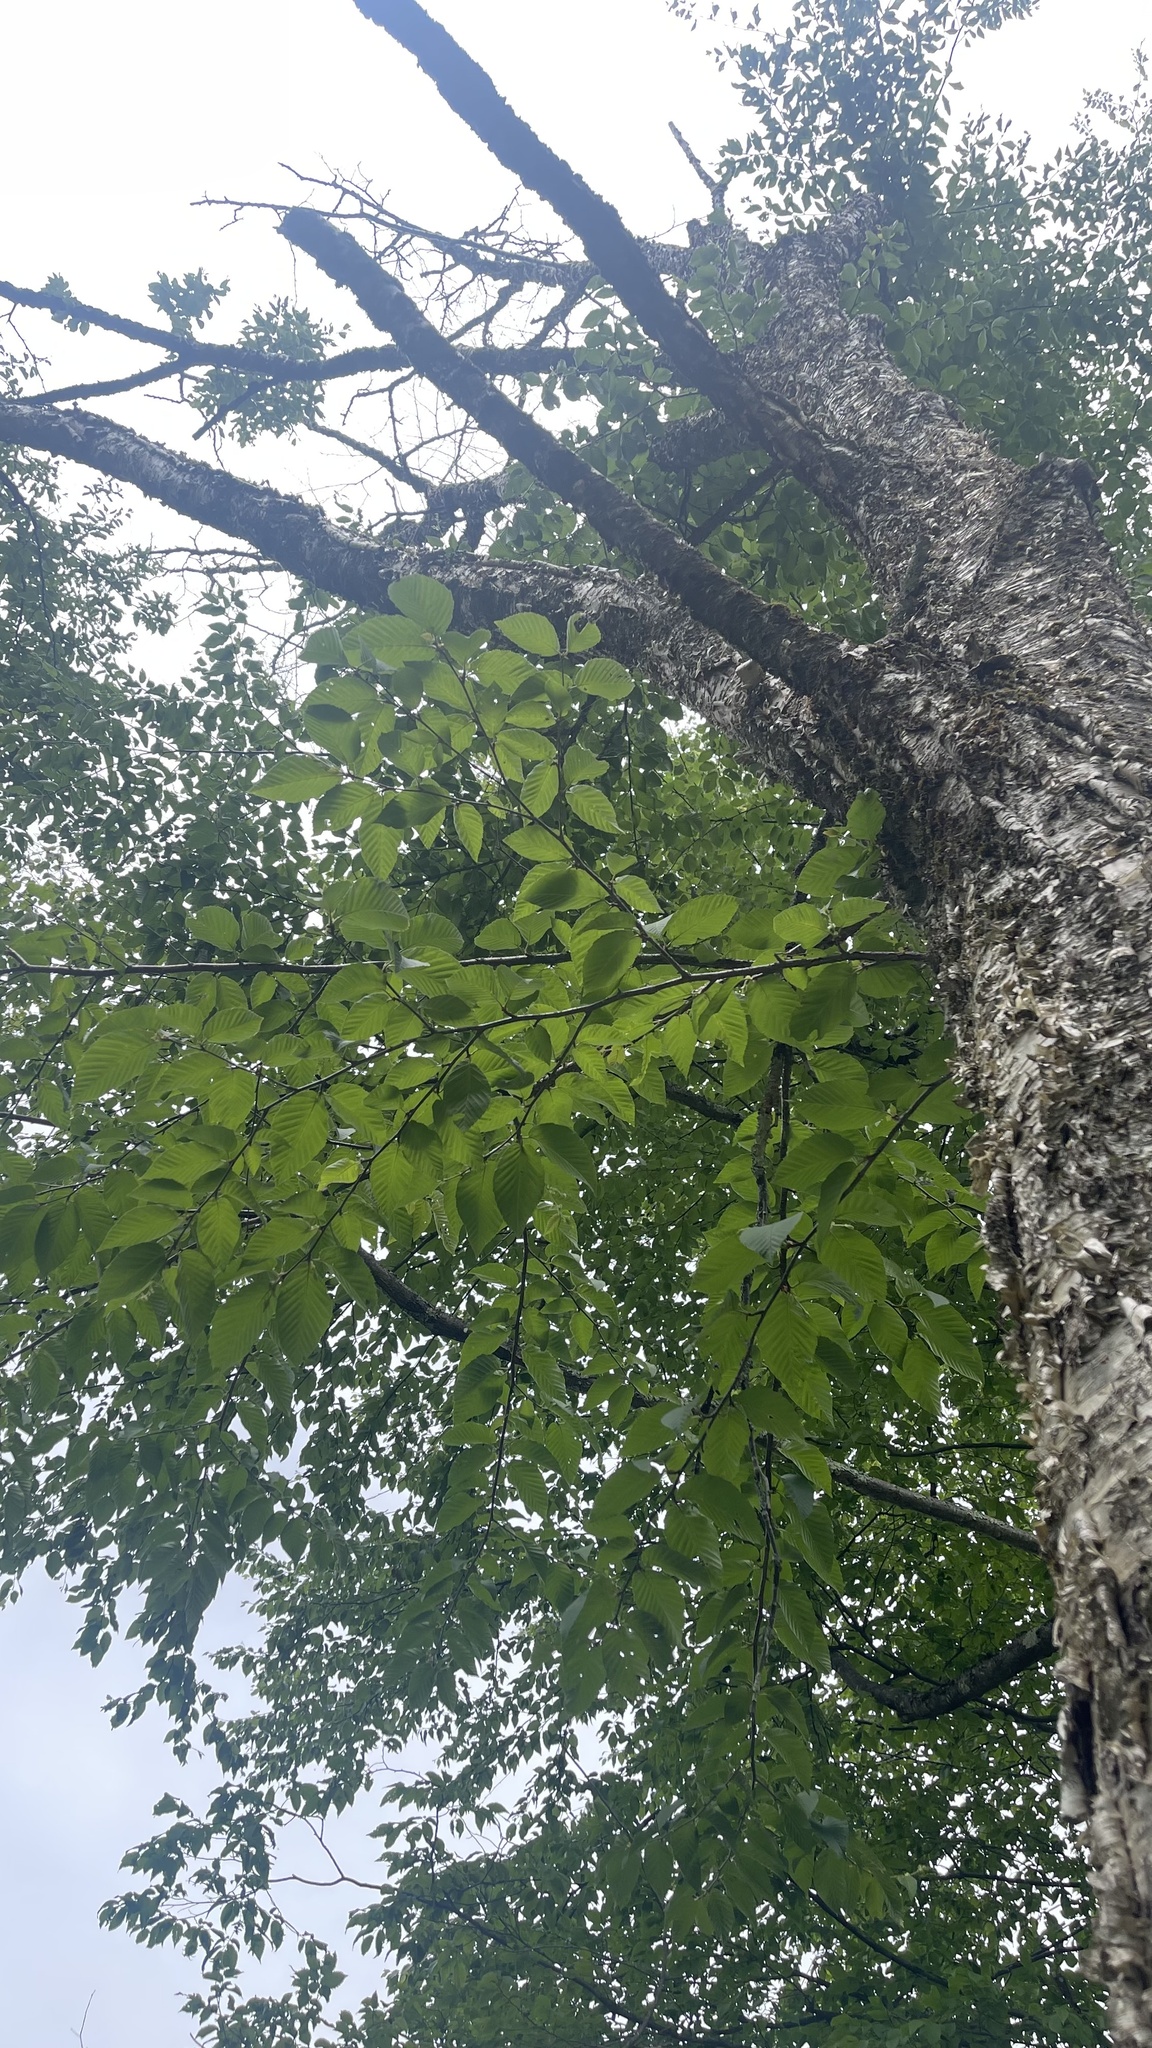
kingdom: Plantae
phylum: Tracheophyta
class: Magnoliopsida
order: Fagales
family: Betulaceae
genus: Betula
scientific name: Betula alleghaniensis
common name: Yellow birch
